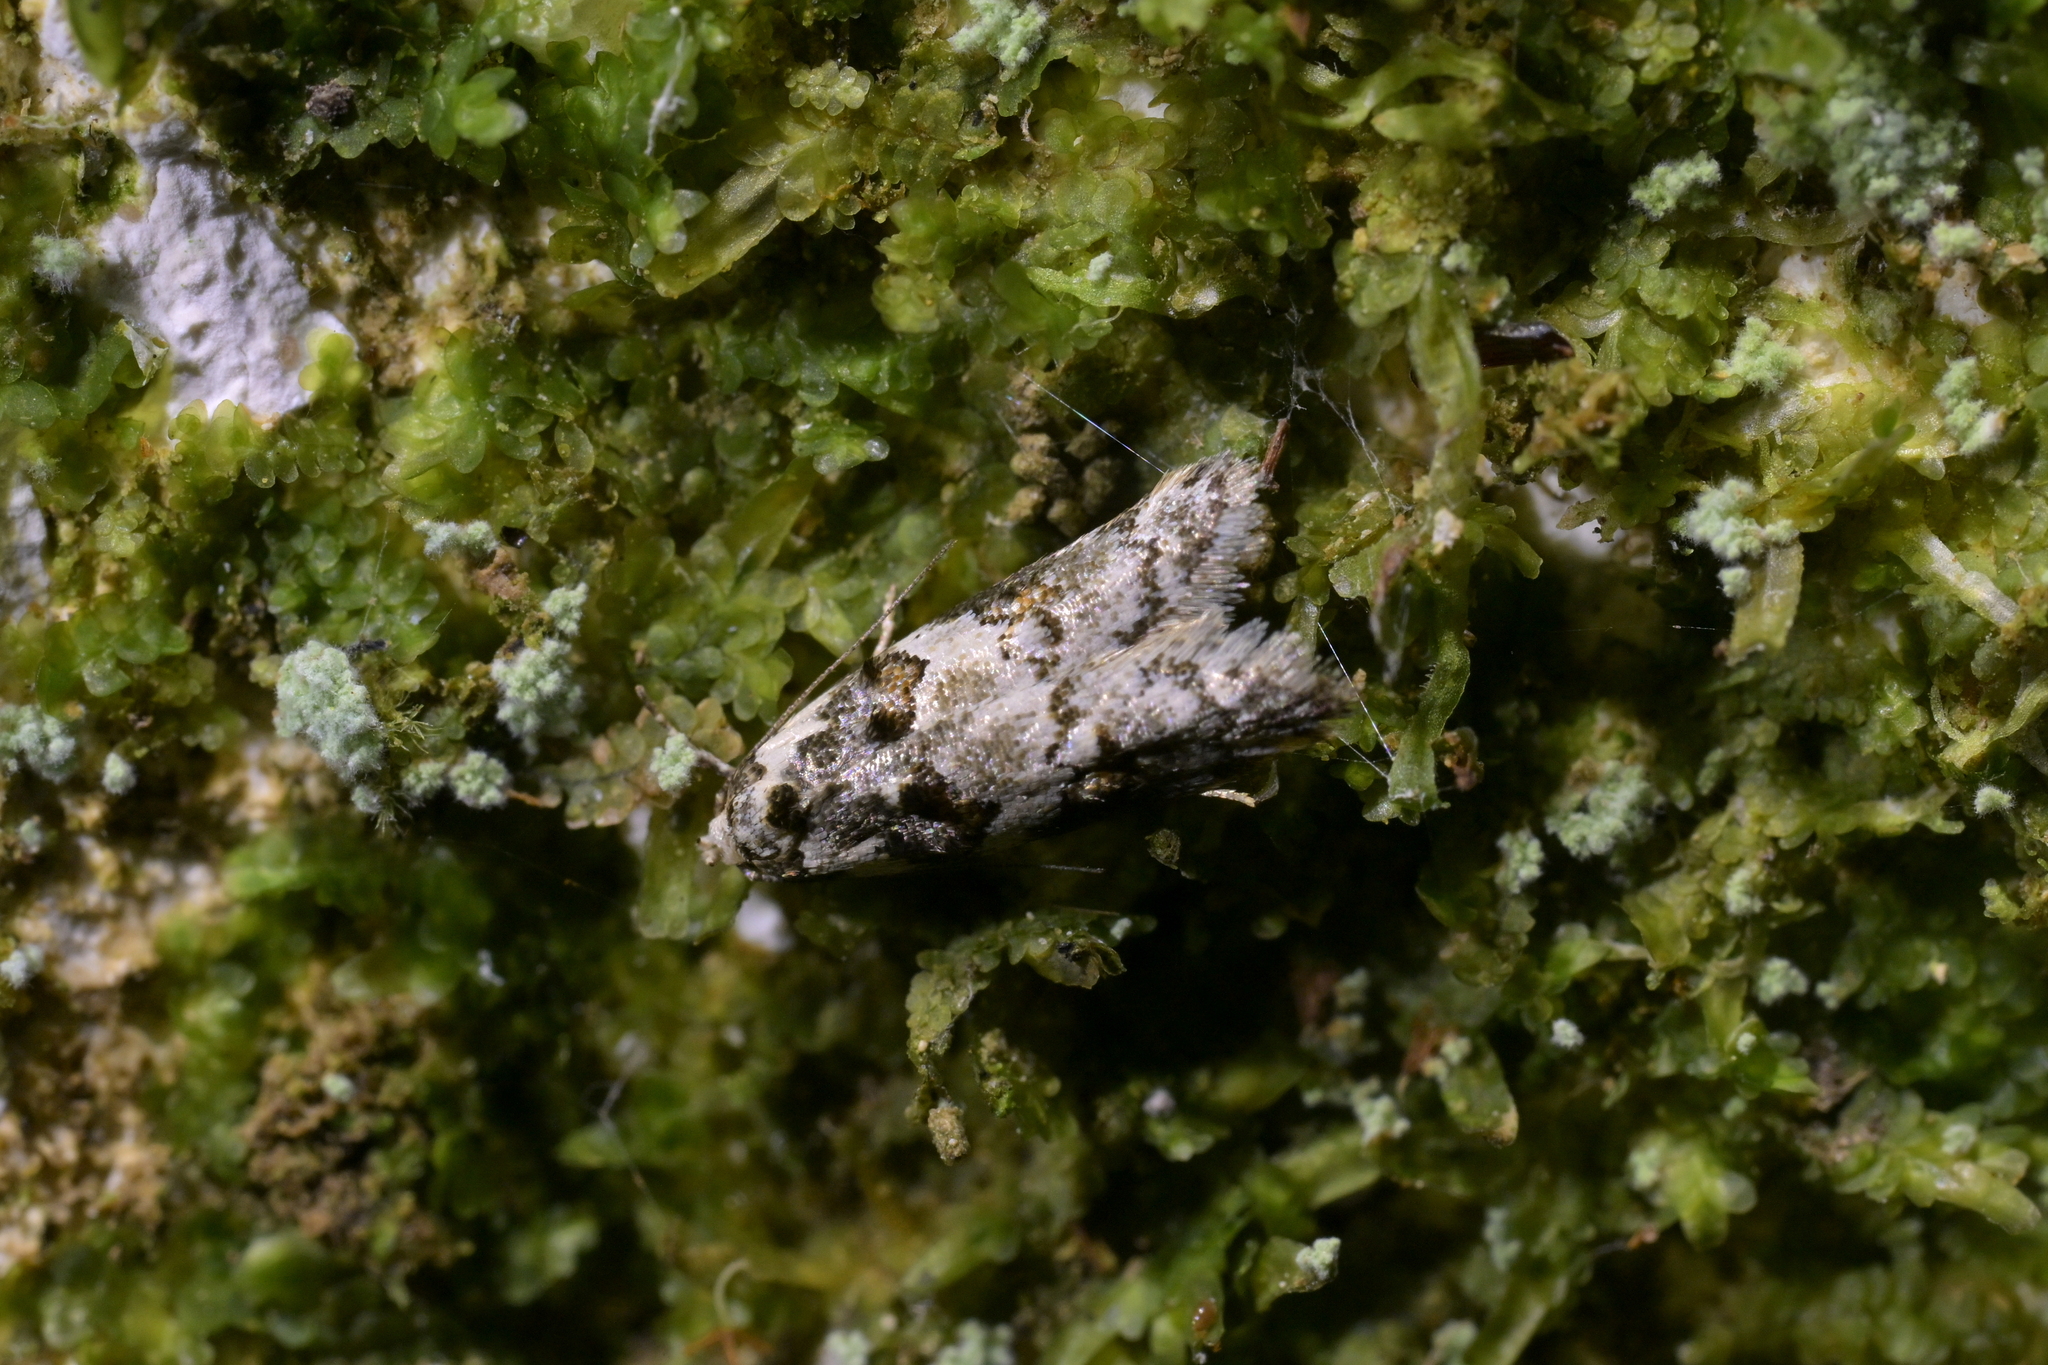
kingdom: Animalia
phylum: Arthropoda
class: Insecta
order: Lepidoptera
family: Oecophoridae
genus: Trachypepla
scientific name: Trachypepla galaxias
